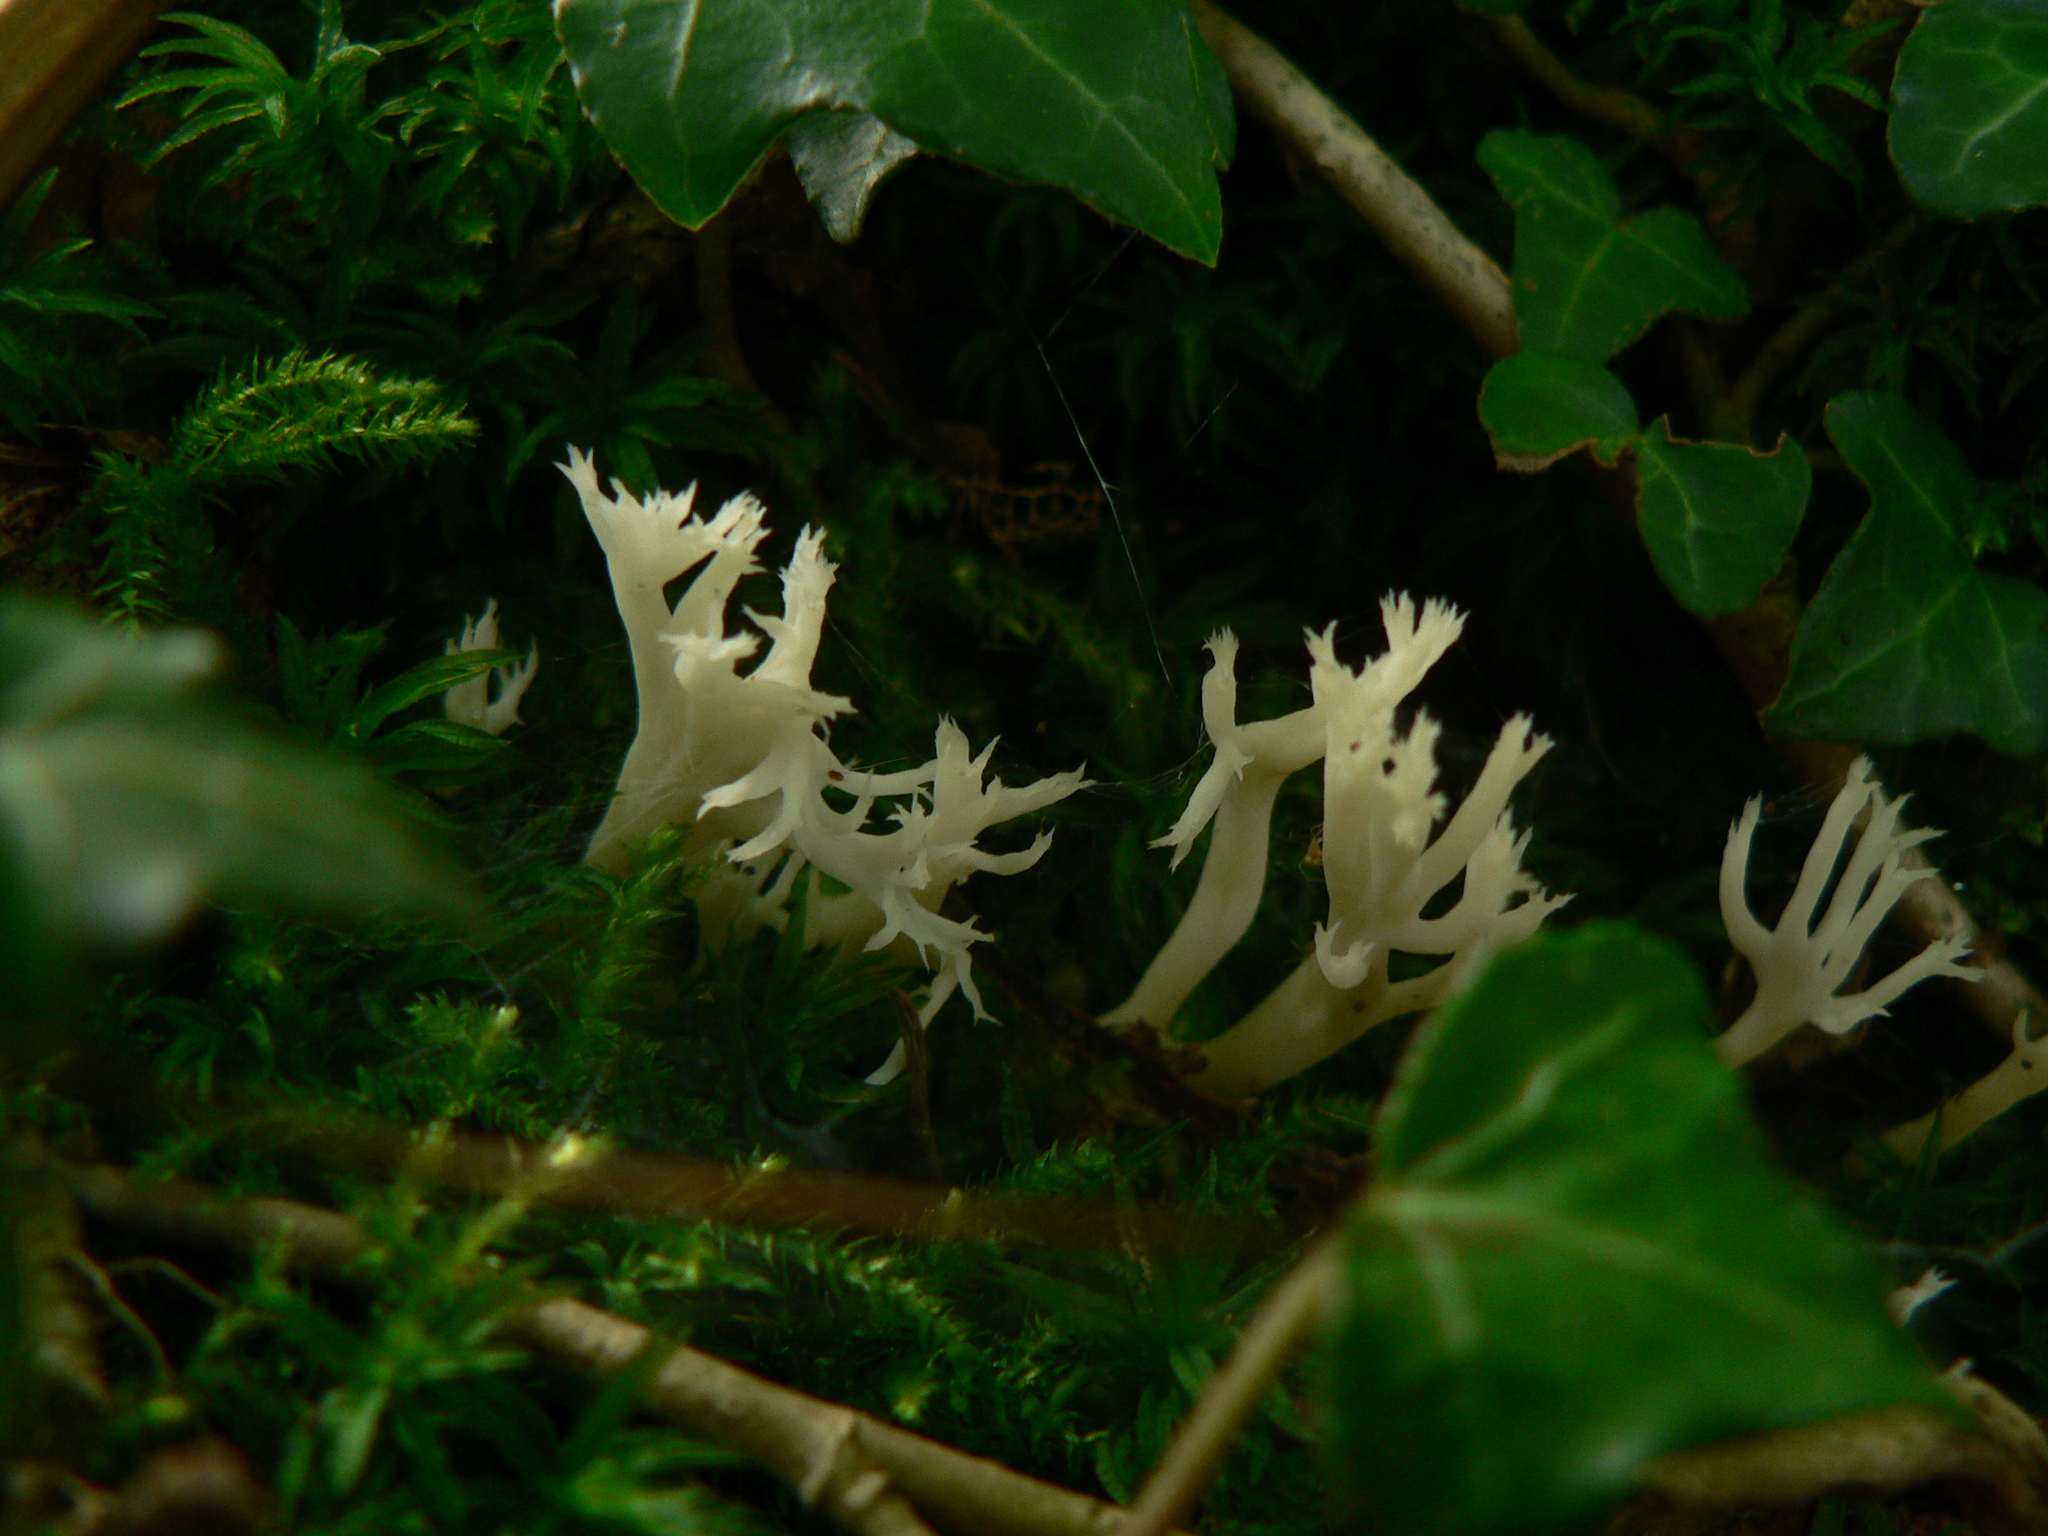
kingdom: Fungi
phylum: Basidiomycota
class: Agaricomycetes
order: Cantharellales
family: Hydnaceae
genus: Clavulina
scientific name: Clavulina coralloides
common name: Crested coral
